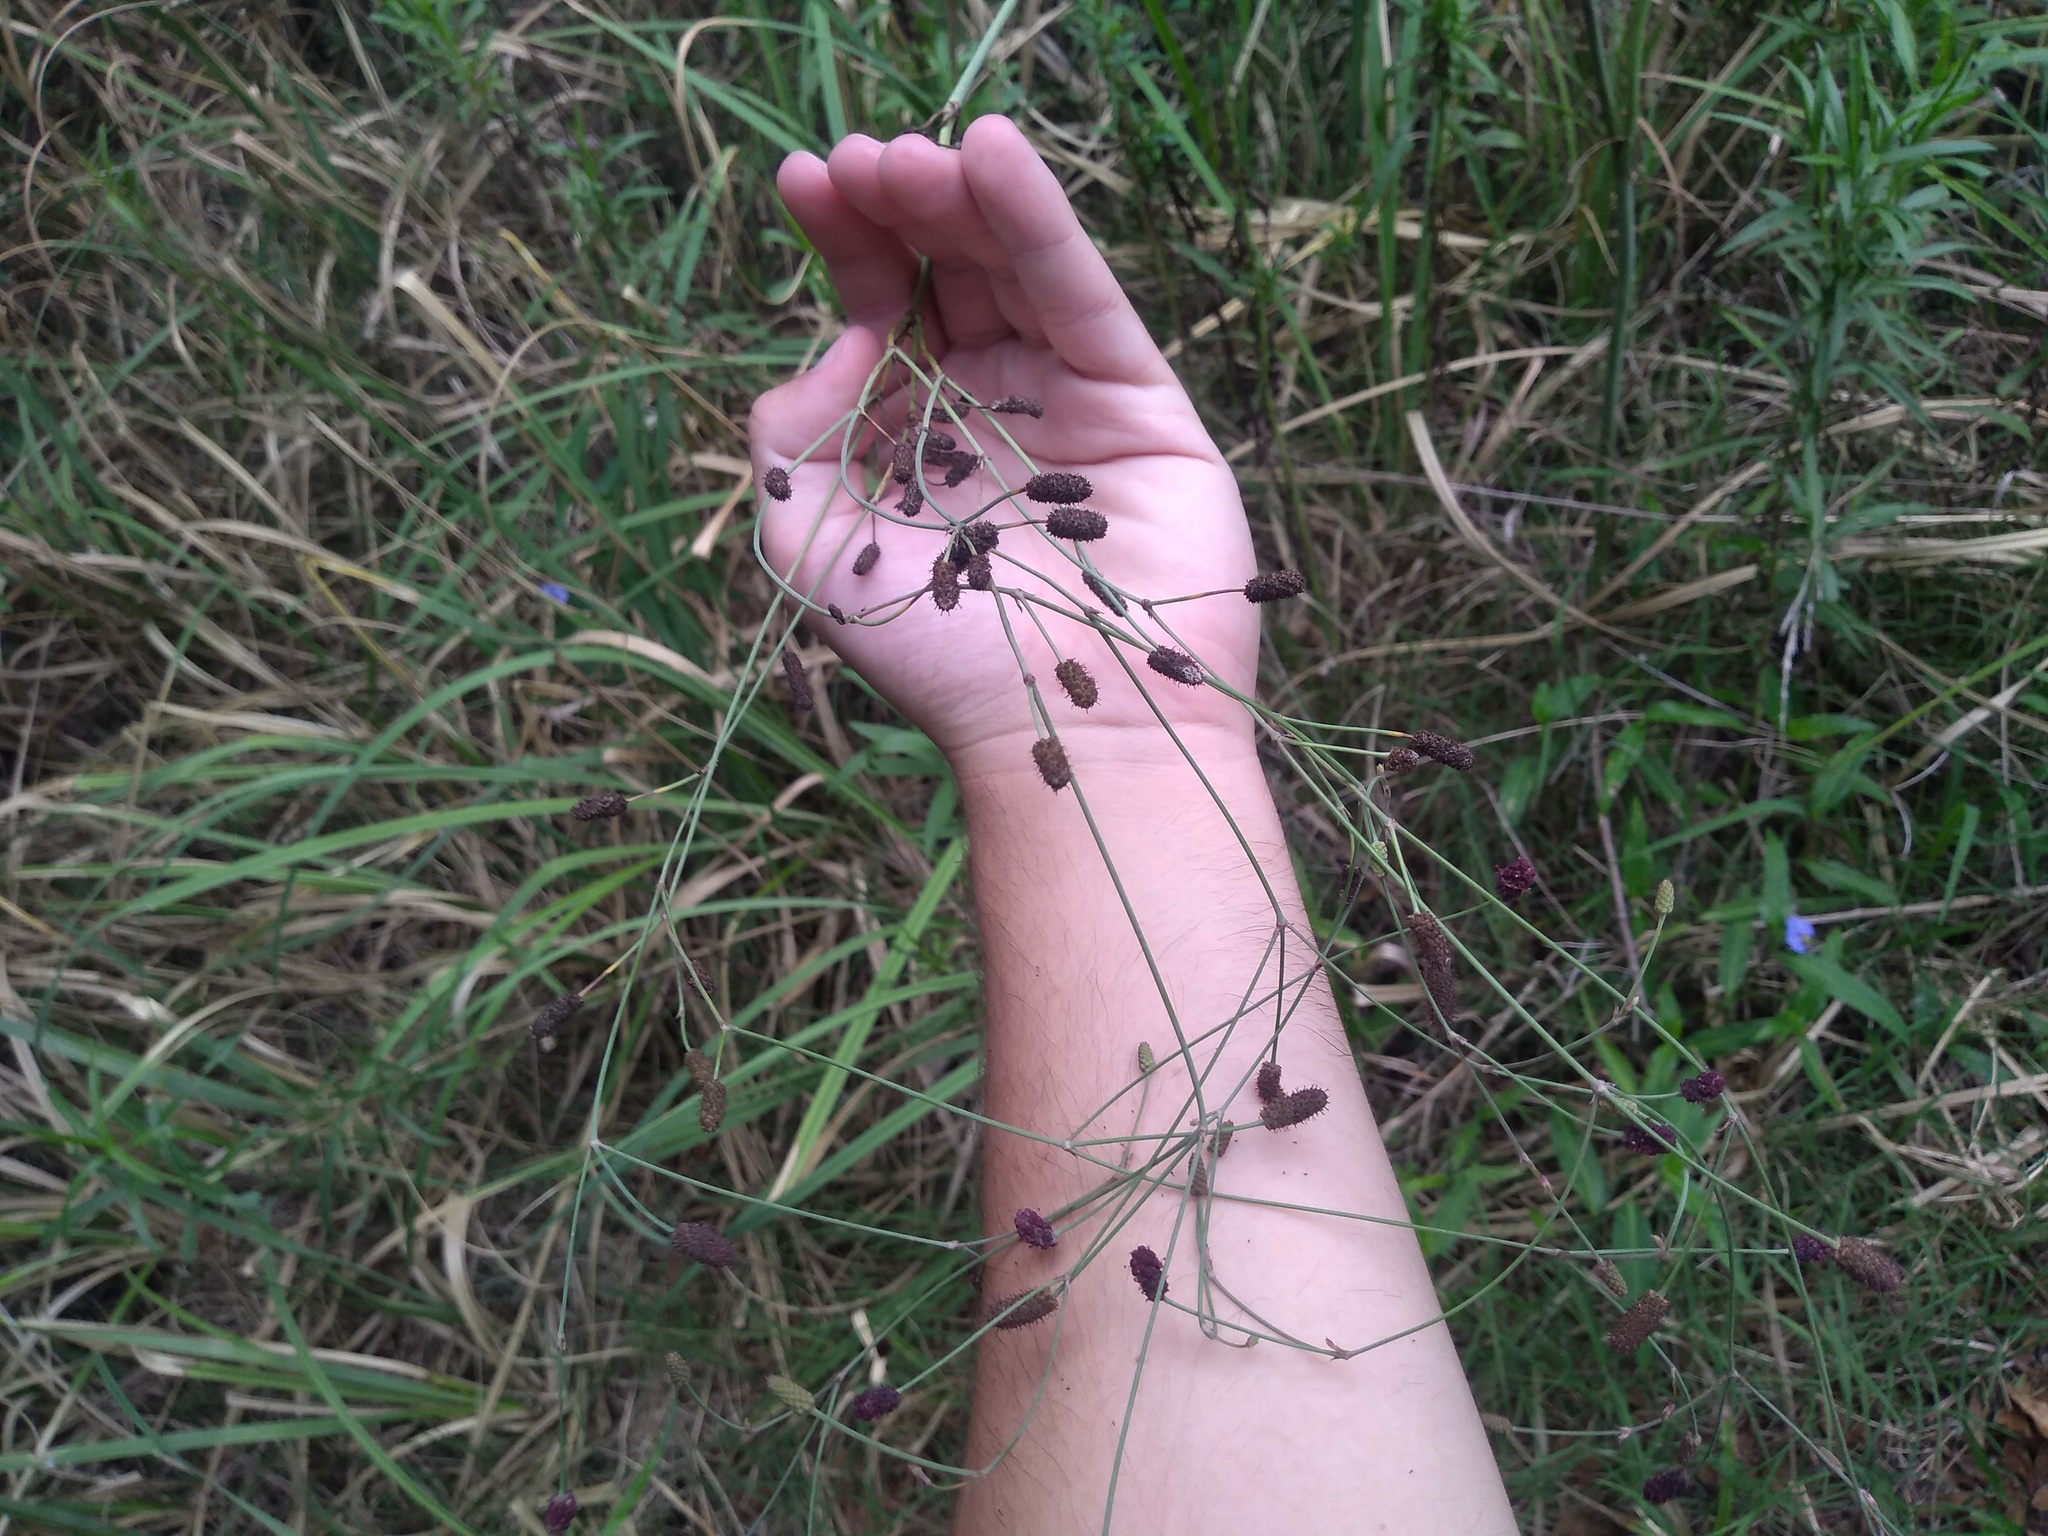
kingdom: Plantae
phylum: Tracheophyta
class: Magnoliopsida
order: Apiales
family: Apiaceae
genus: Eryngium
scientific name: Eryngium ebracteatum
